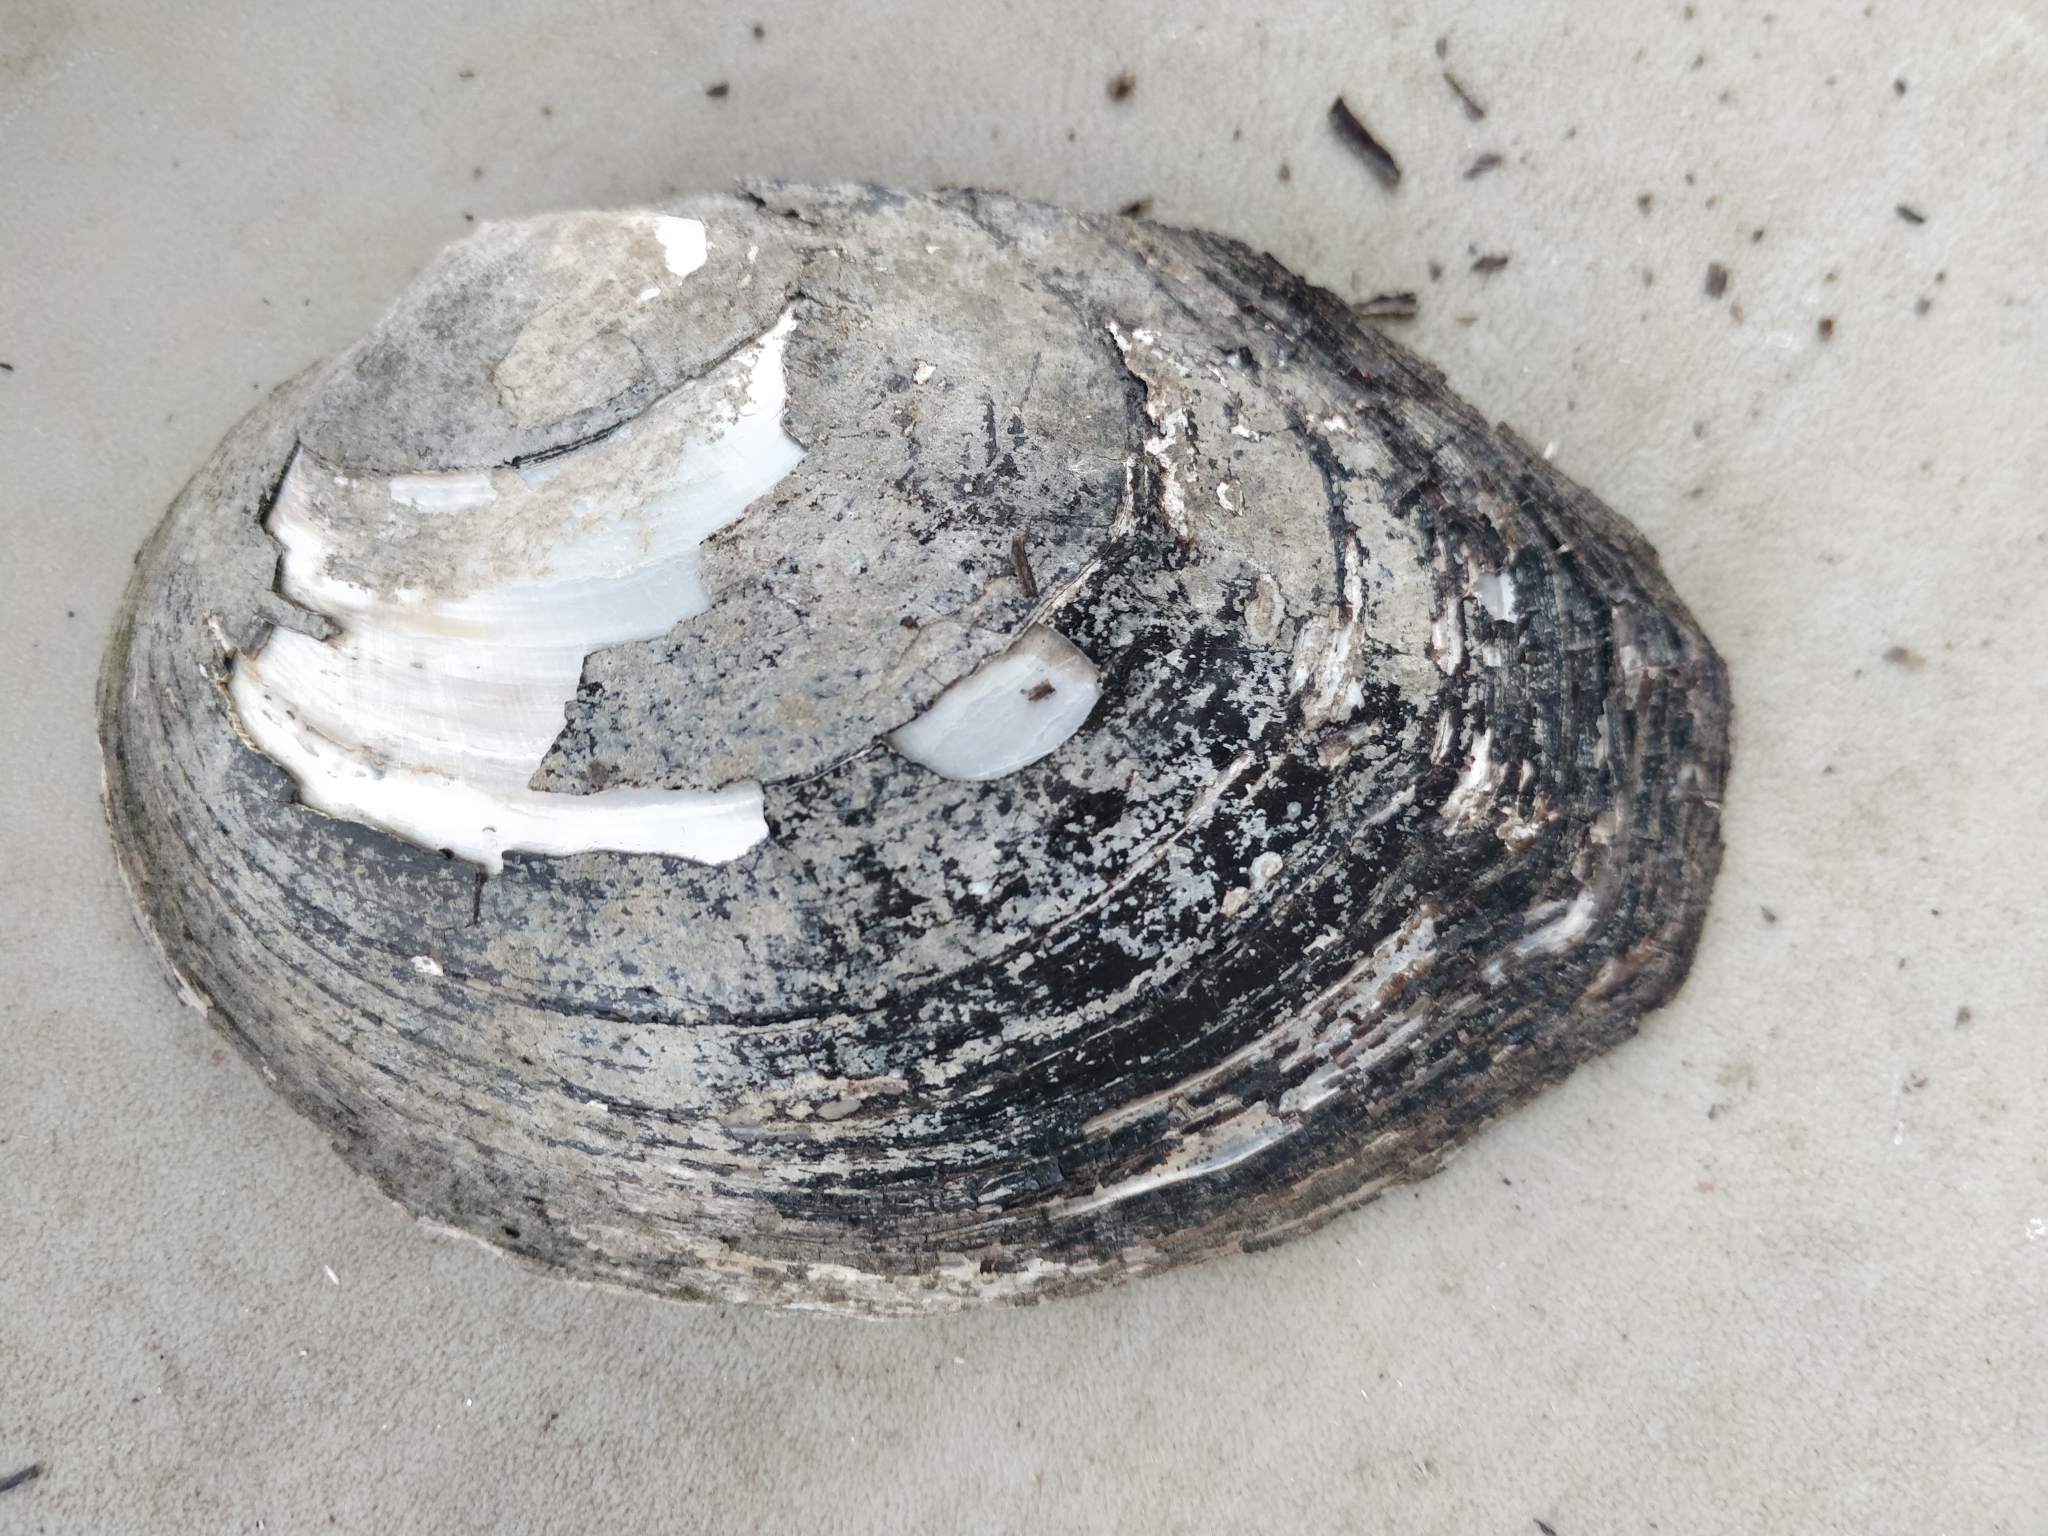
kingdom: Animalia
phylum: Mollusca
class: Bivalvia
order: Unionida
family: Unionidae
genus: Lasmigona
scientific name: Lasmigona complanata
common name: White heelsplitter
